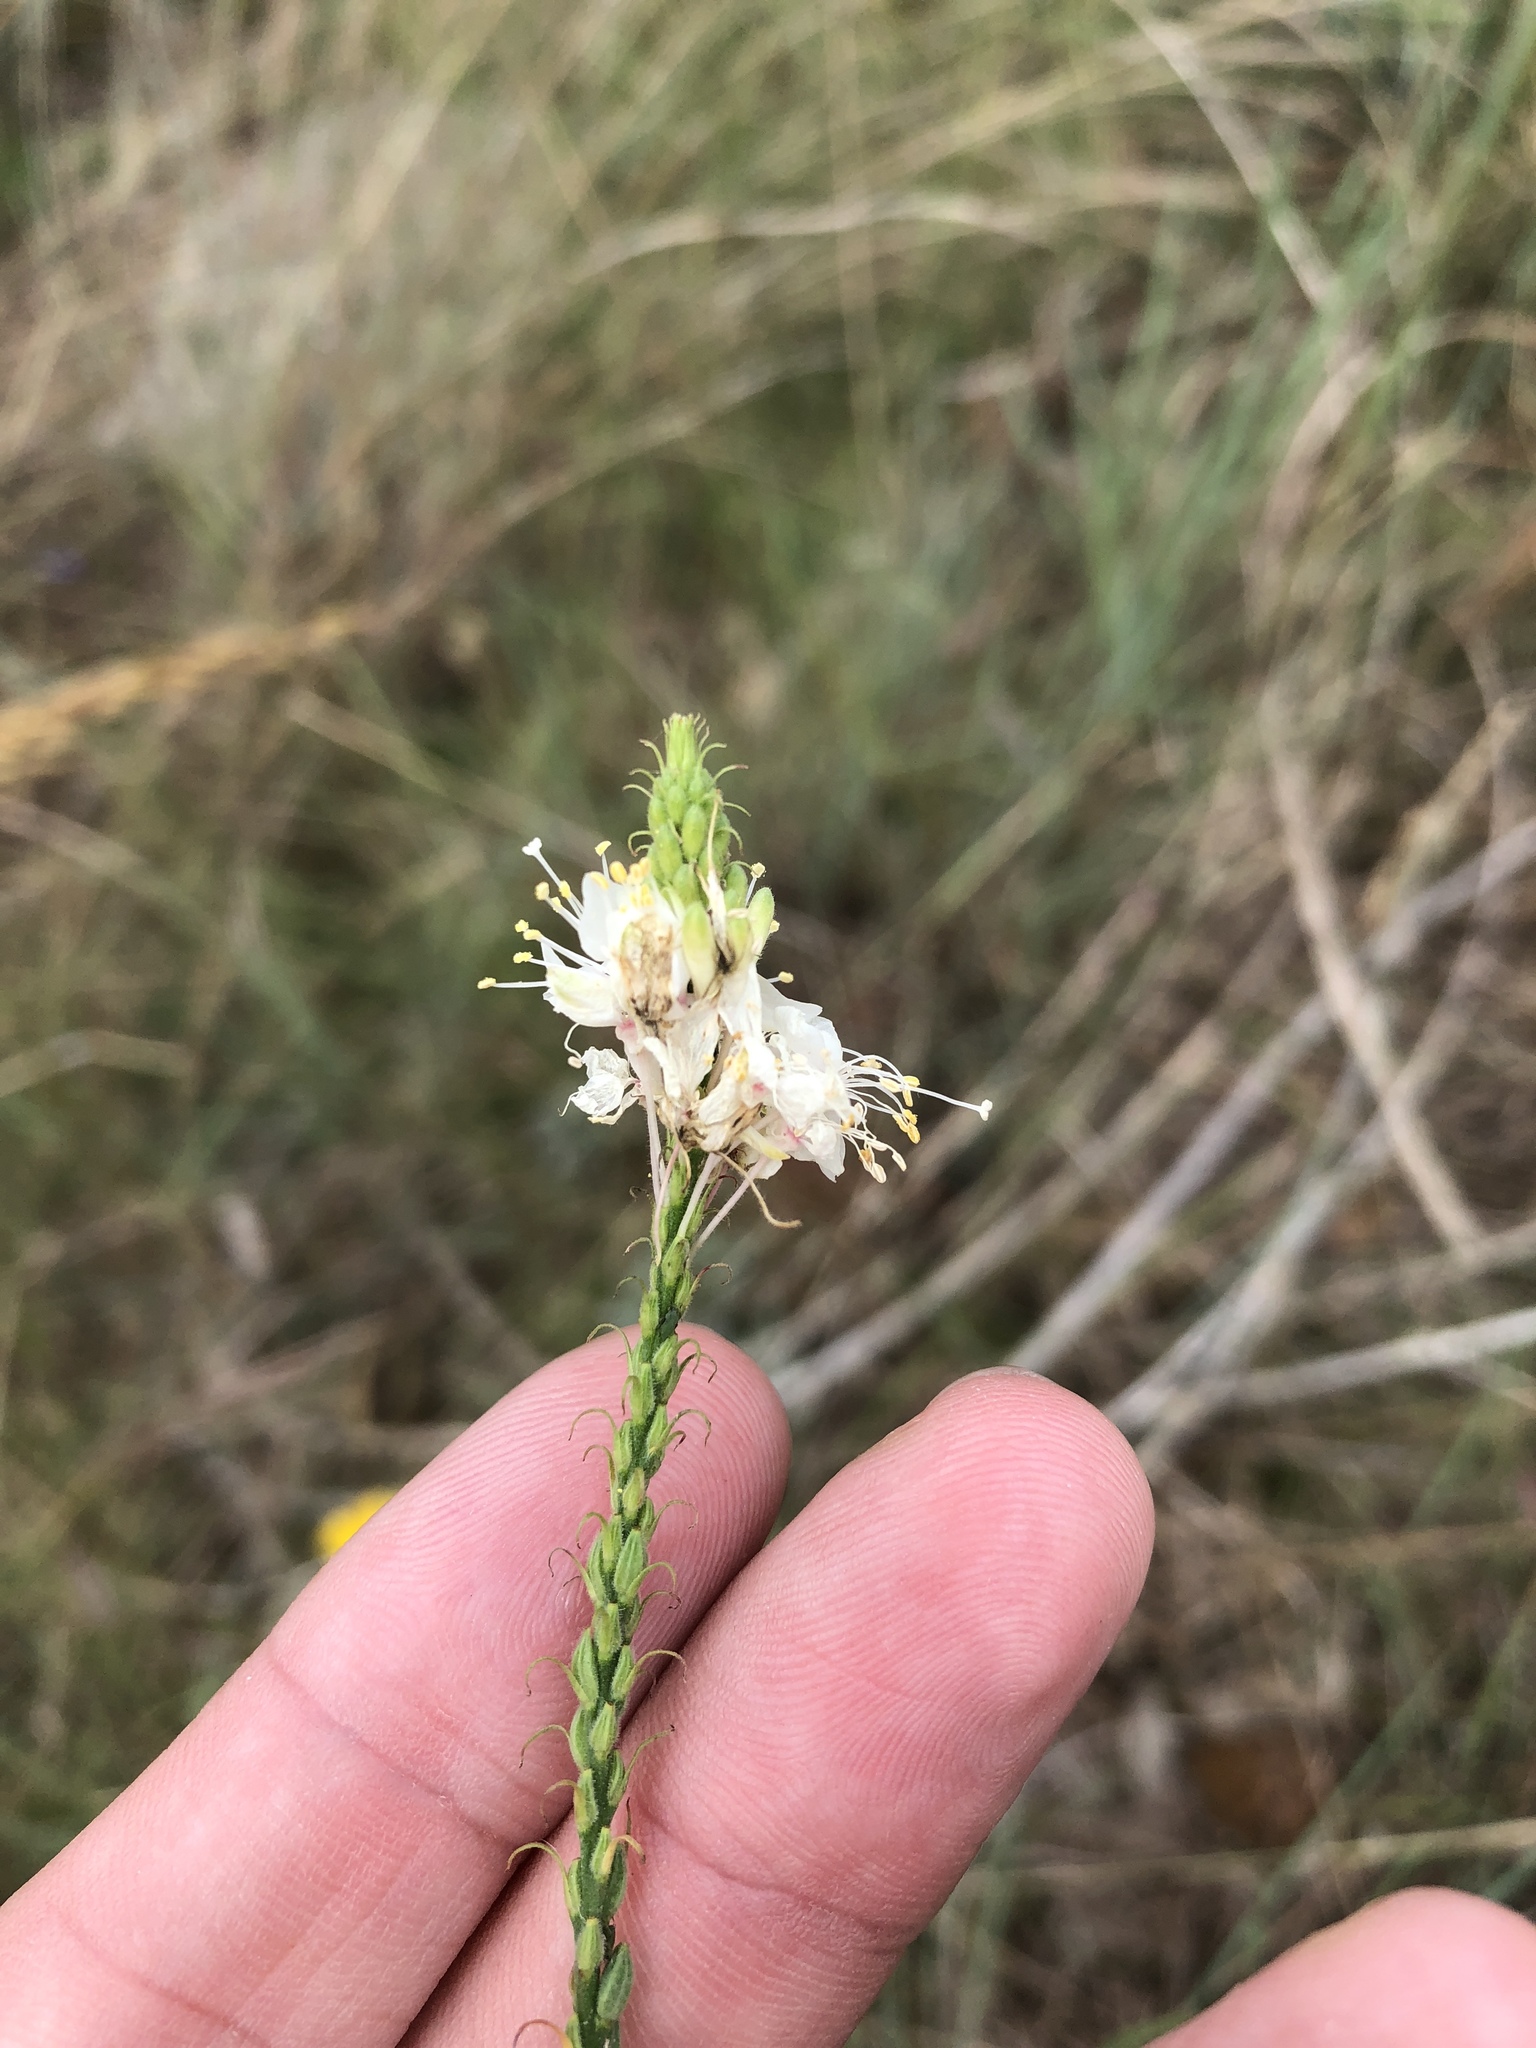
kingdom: Plantae
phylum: Tracheophyta
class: Magnoliopsida
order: Myrtales
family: Onagraceae
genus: Oenothera
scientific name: Oenothera glaucifolia
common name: False gaura
